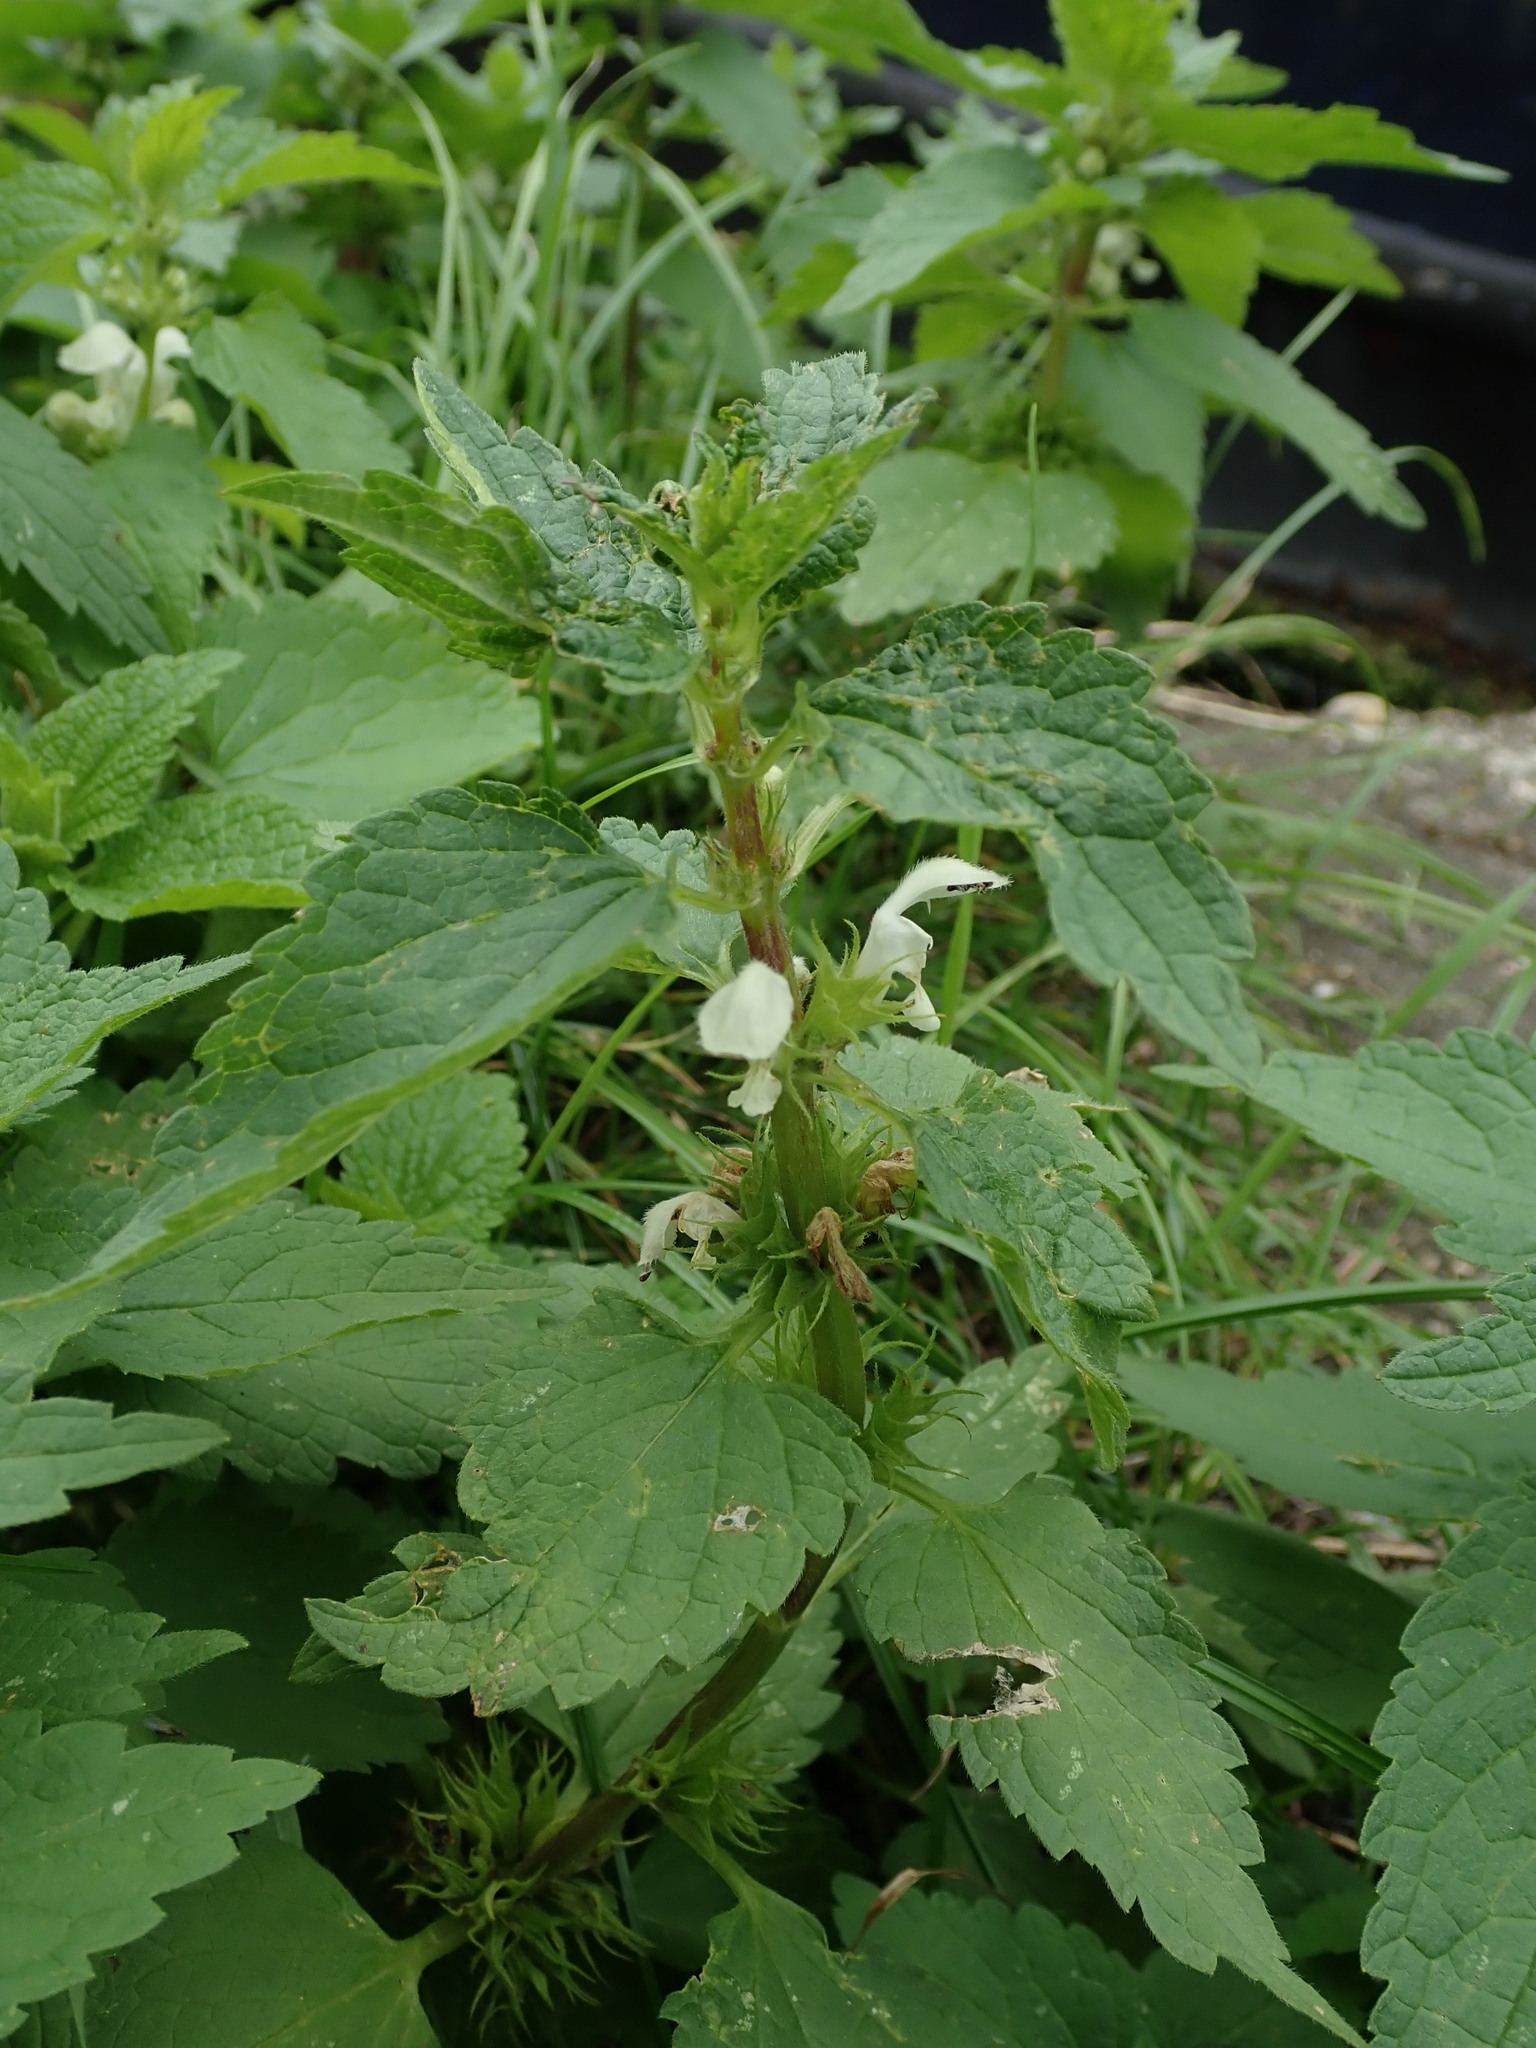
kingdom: Plantae
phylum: Tracheophyta
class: Magnoliopsida
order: Lamiales
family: Lamiaceae
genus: Lamium
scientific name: Lamium album
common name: White dead-nettle
